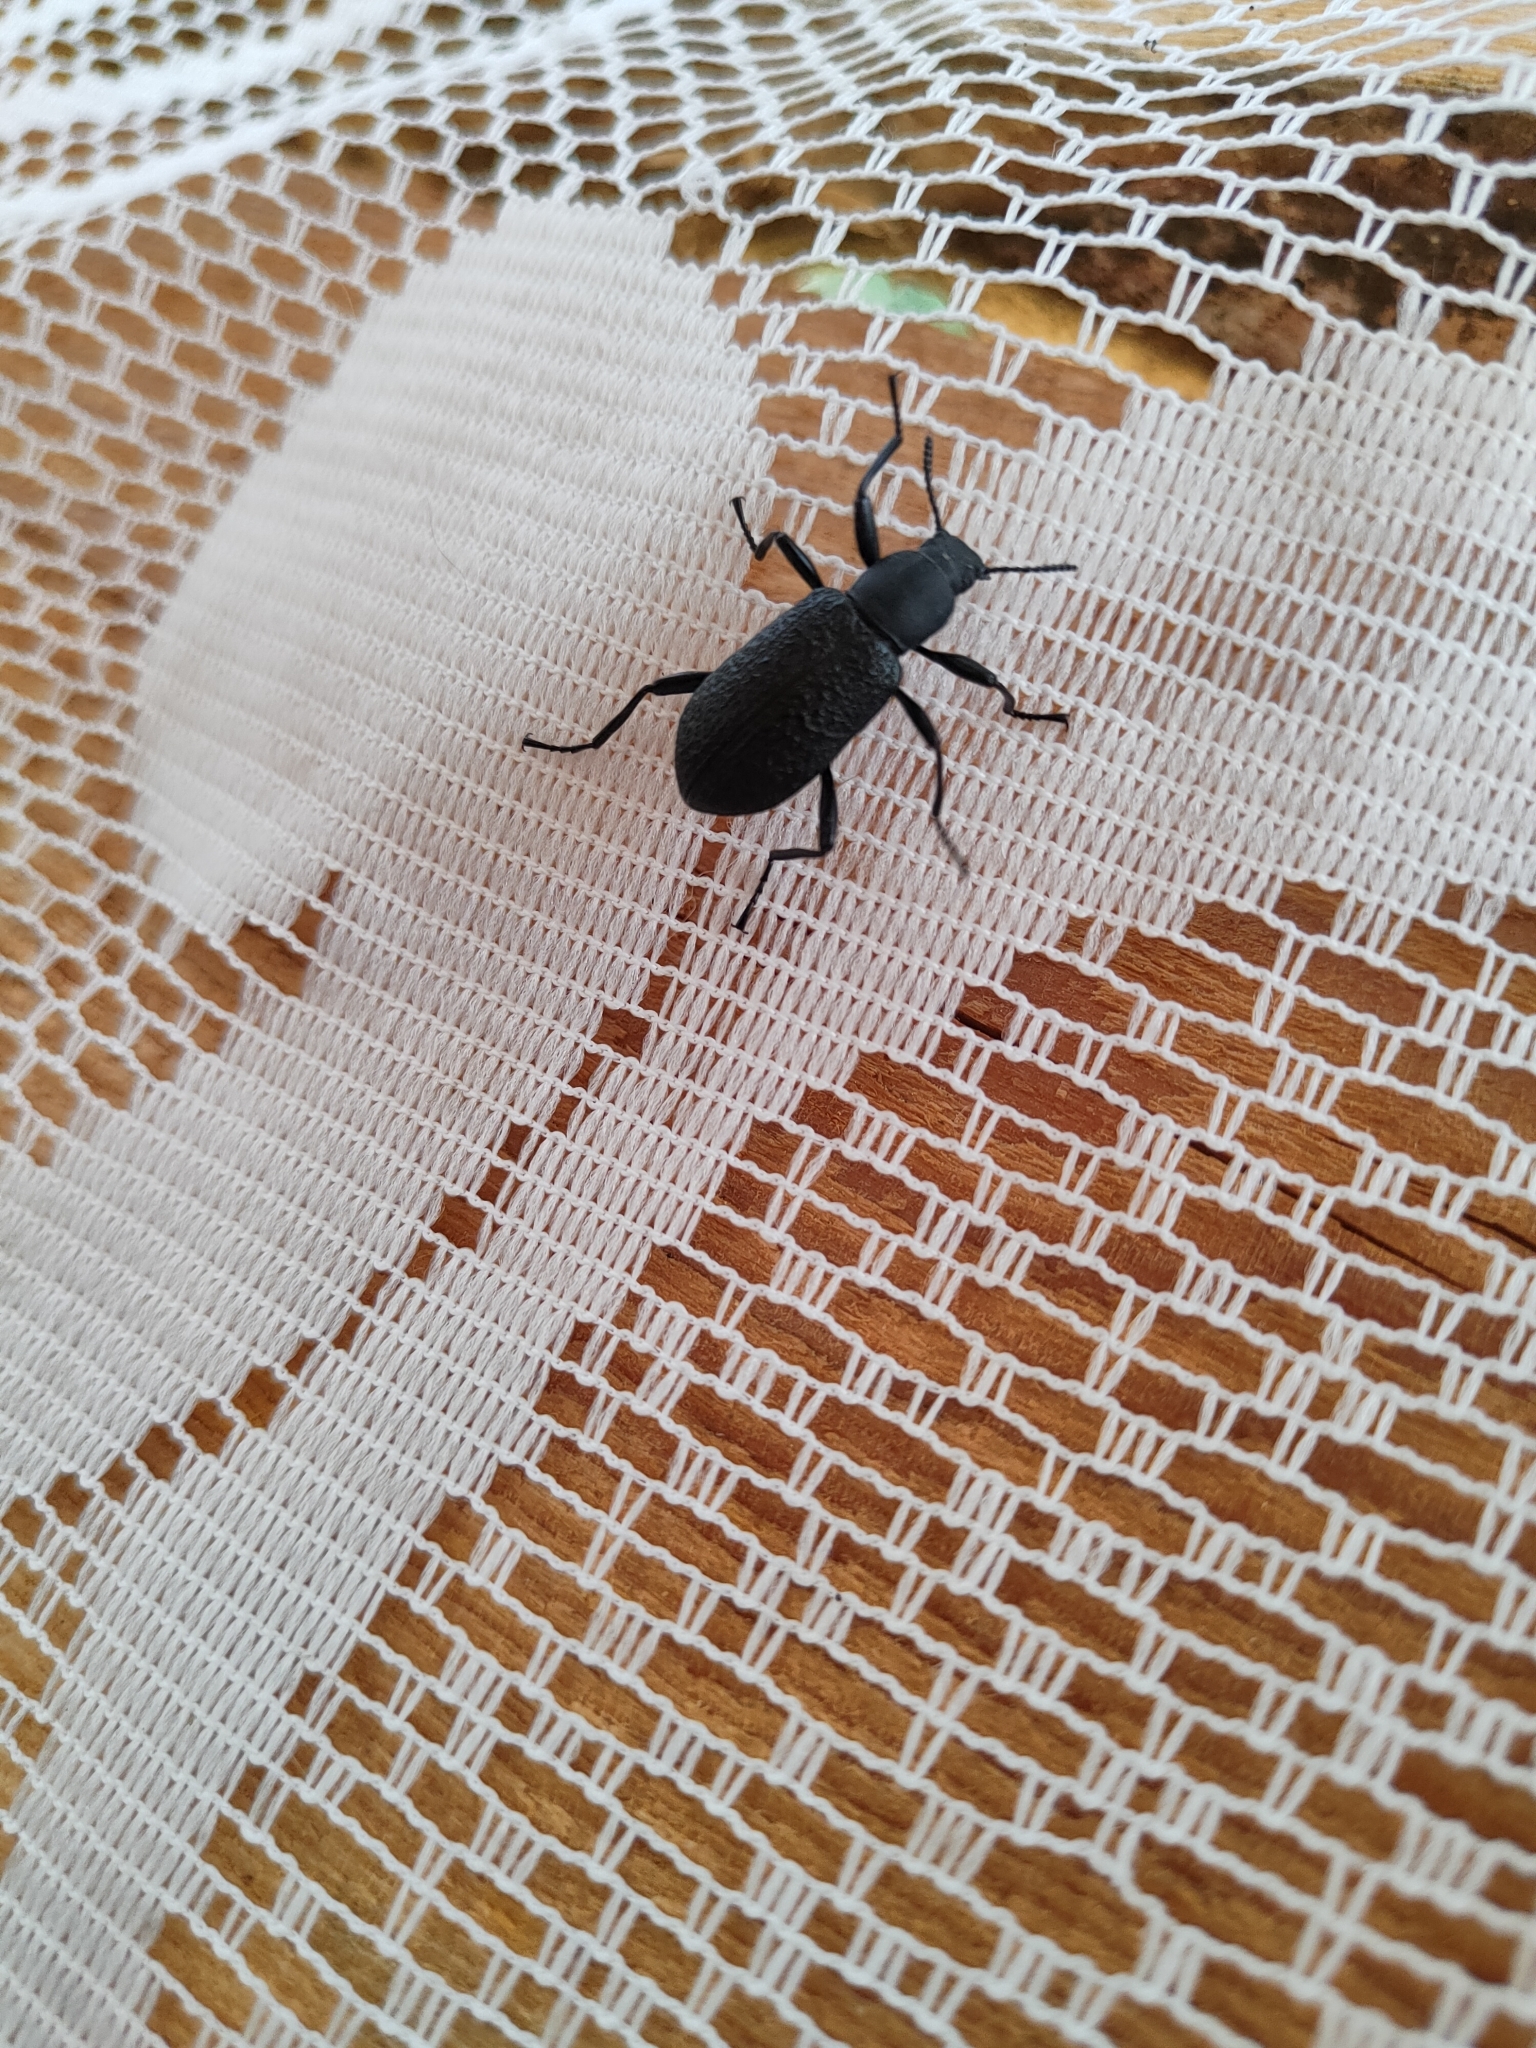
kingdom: Animalia
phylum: Arthropoda
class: Insecta
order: Coleoptera
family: Tenebrionidae
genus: Upis
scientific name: Upis ceramboides
